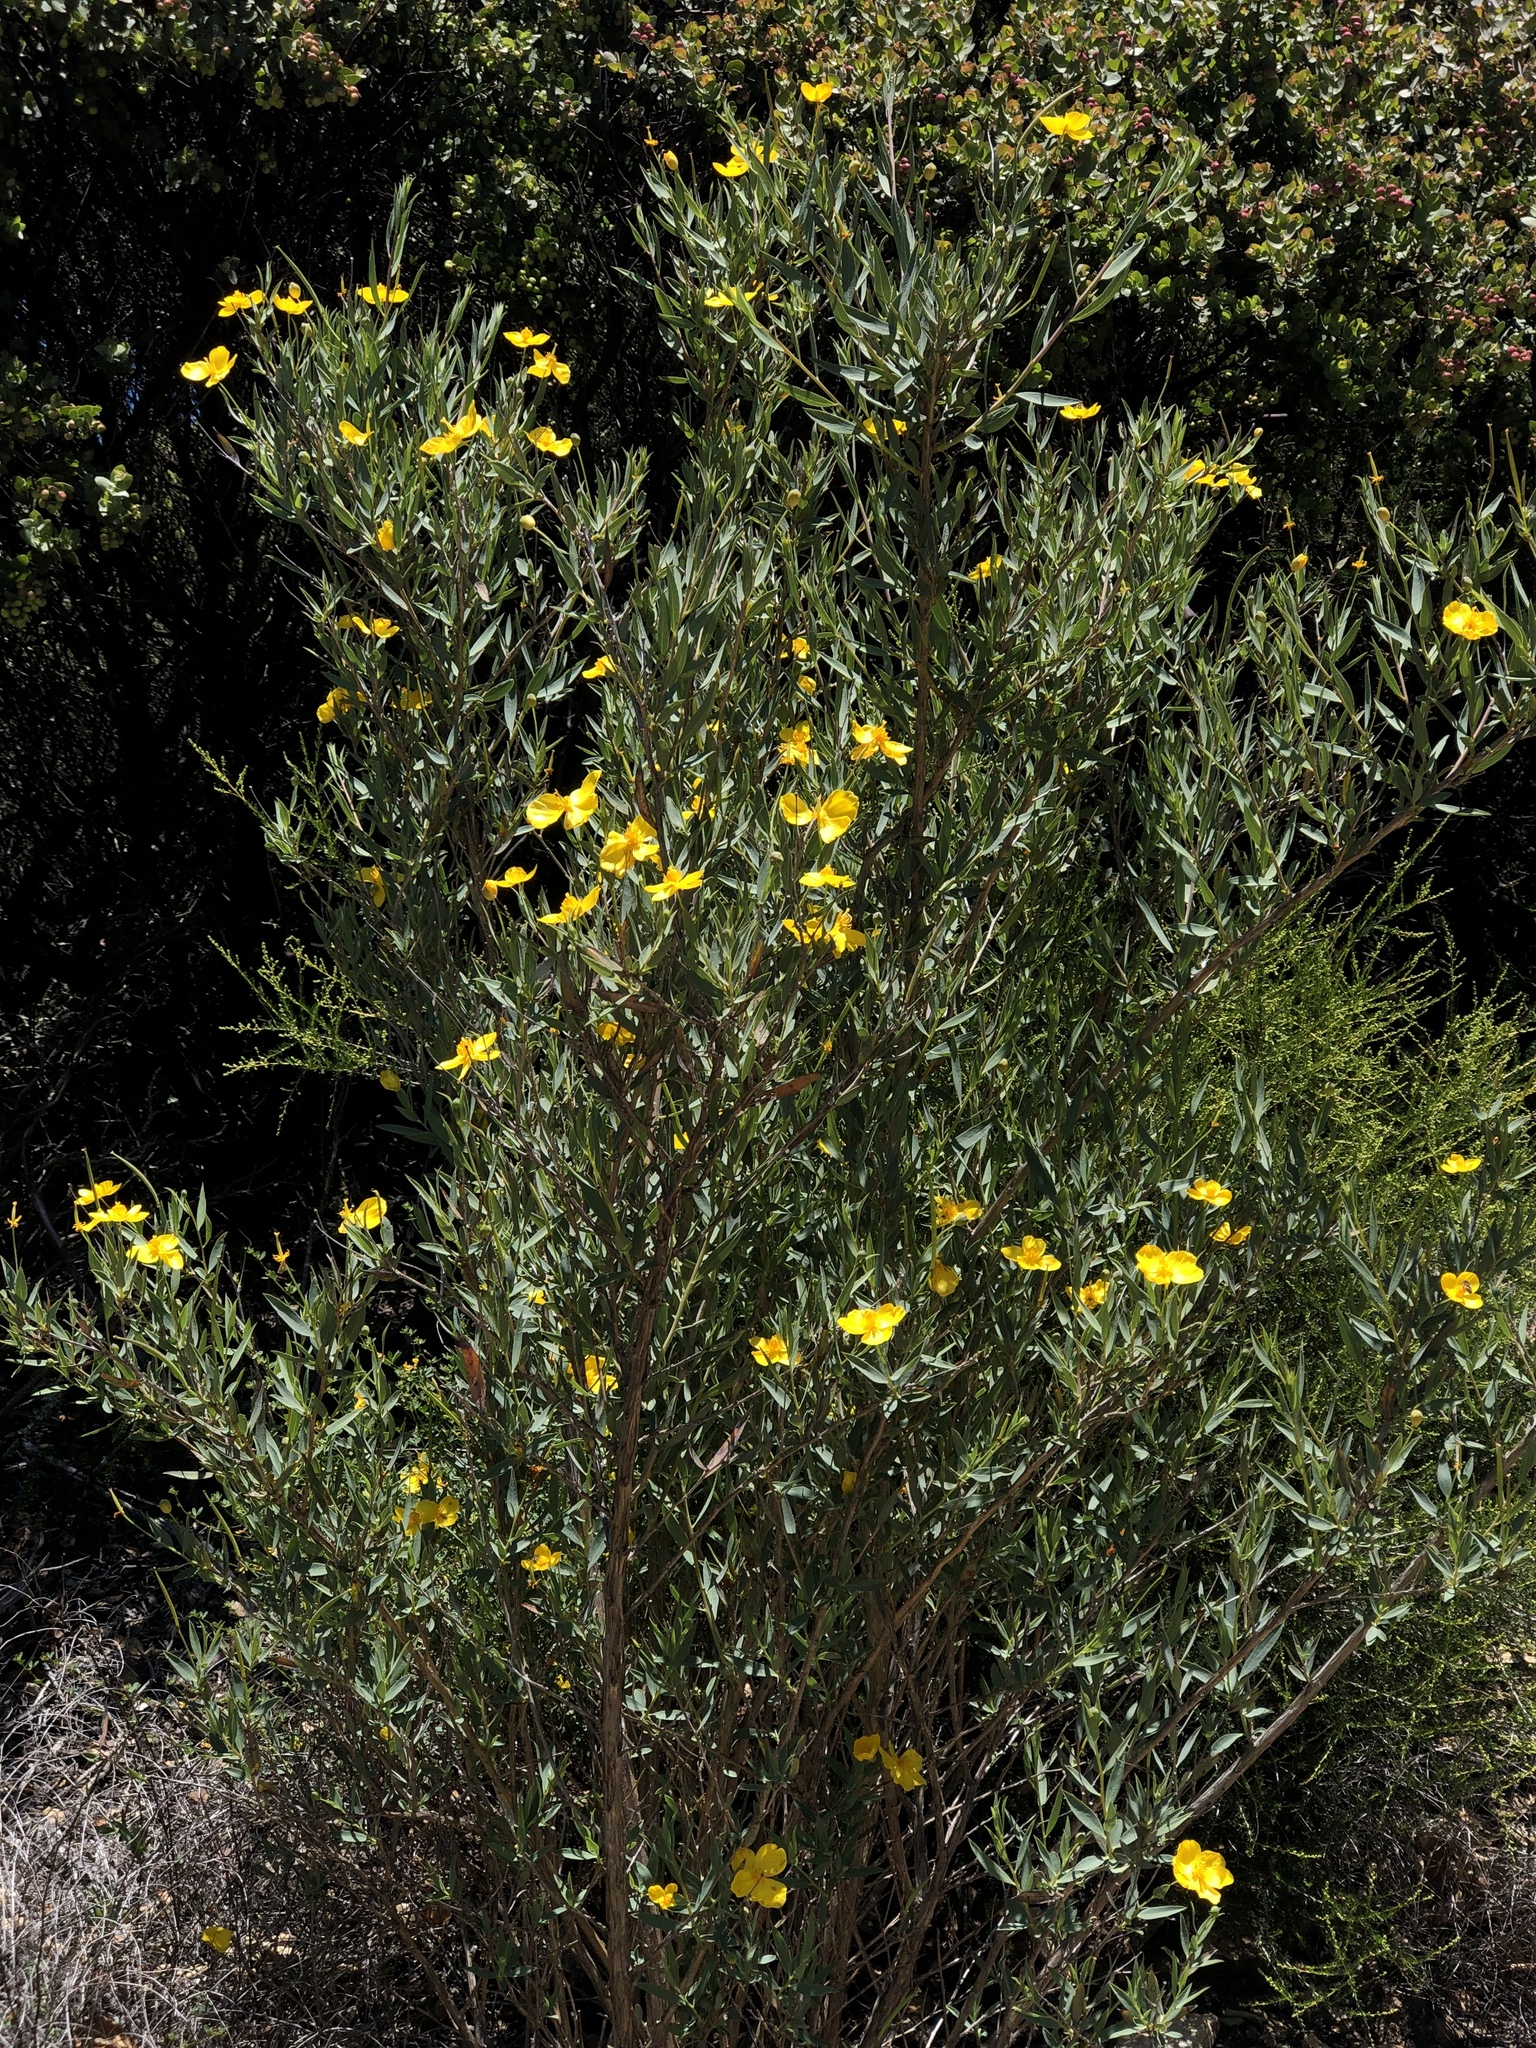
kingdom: Plantae
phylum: Tracheophyta
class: Magnoliopsida
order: Ranunculales
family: Papaveraceae
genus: Dendromecon
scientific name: Dendromecon rigida
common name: Tree poppy
